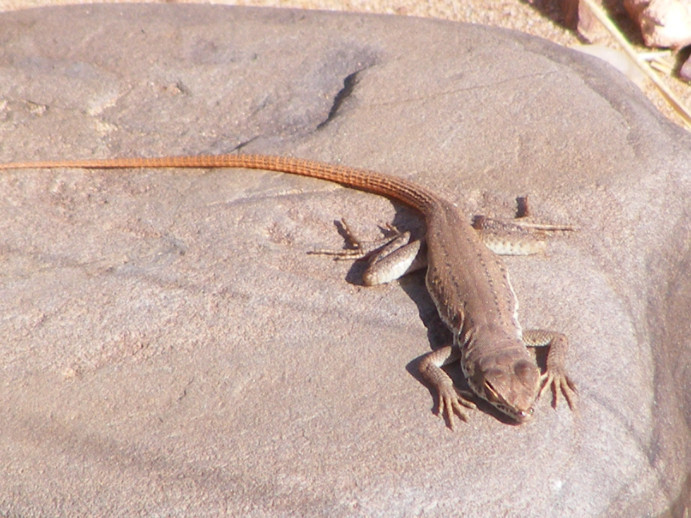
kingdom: Animalia
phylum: Chordata
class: Squamata
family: Lacertidae
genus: Pedioplanis
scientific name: Pedioplanis inornata
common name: Plain sand lizard
